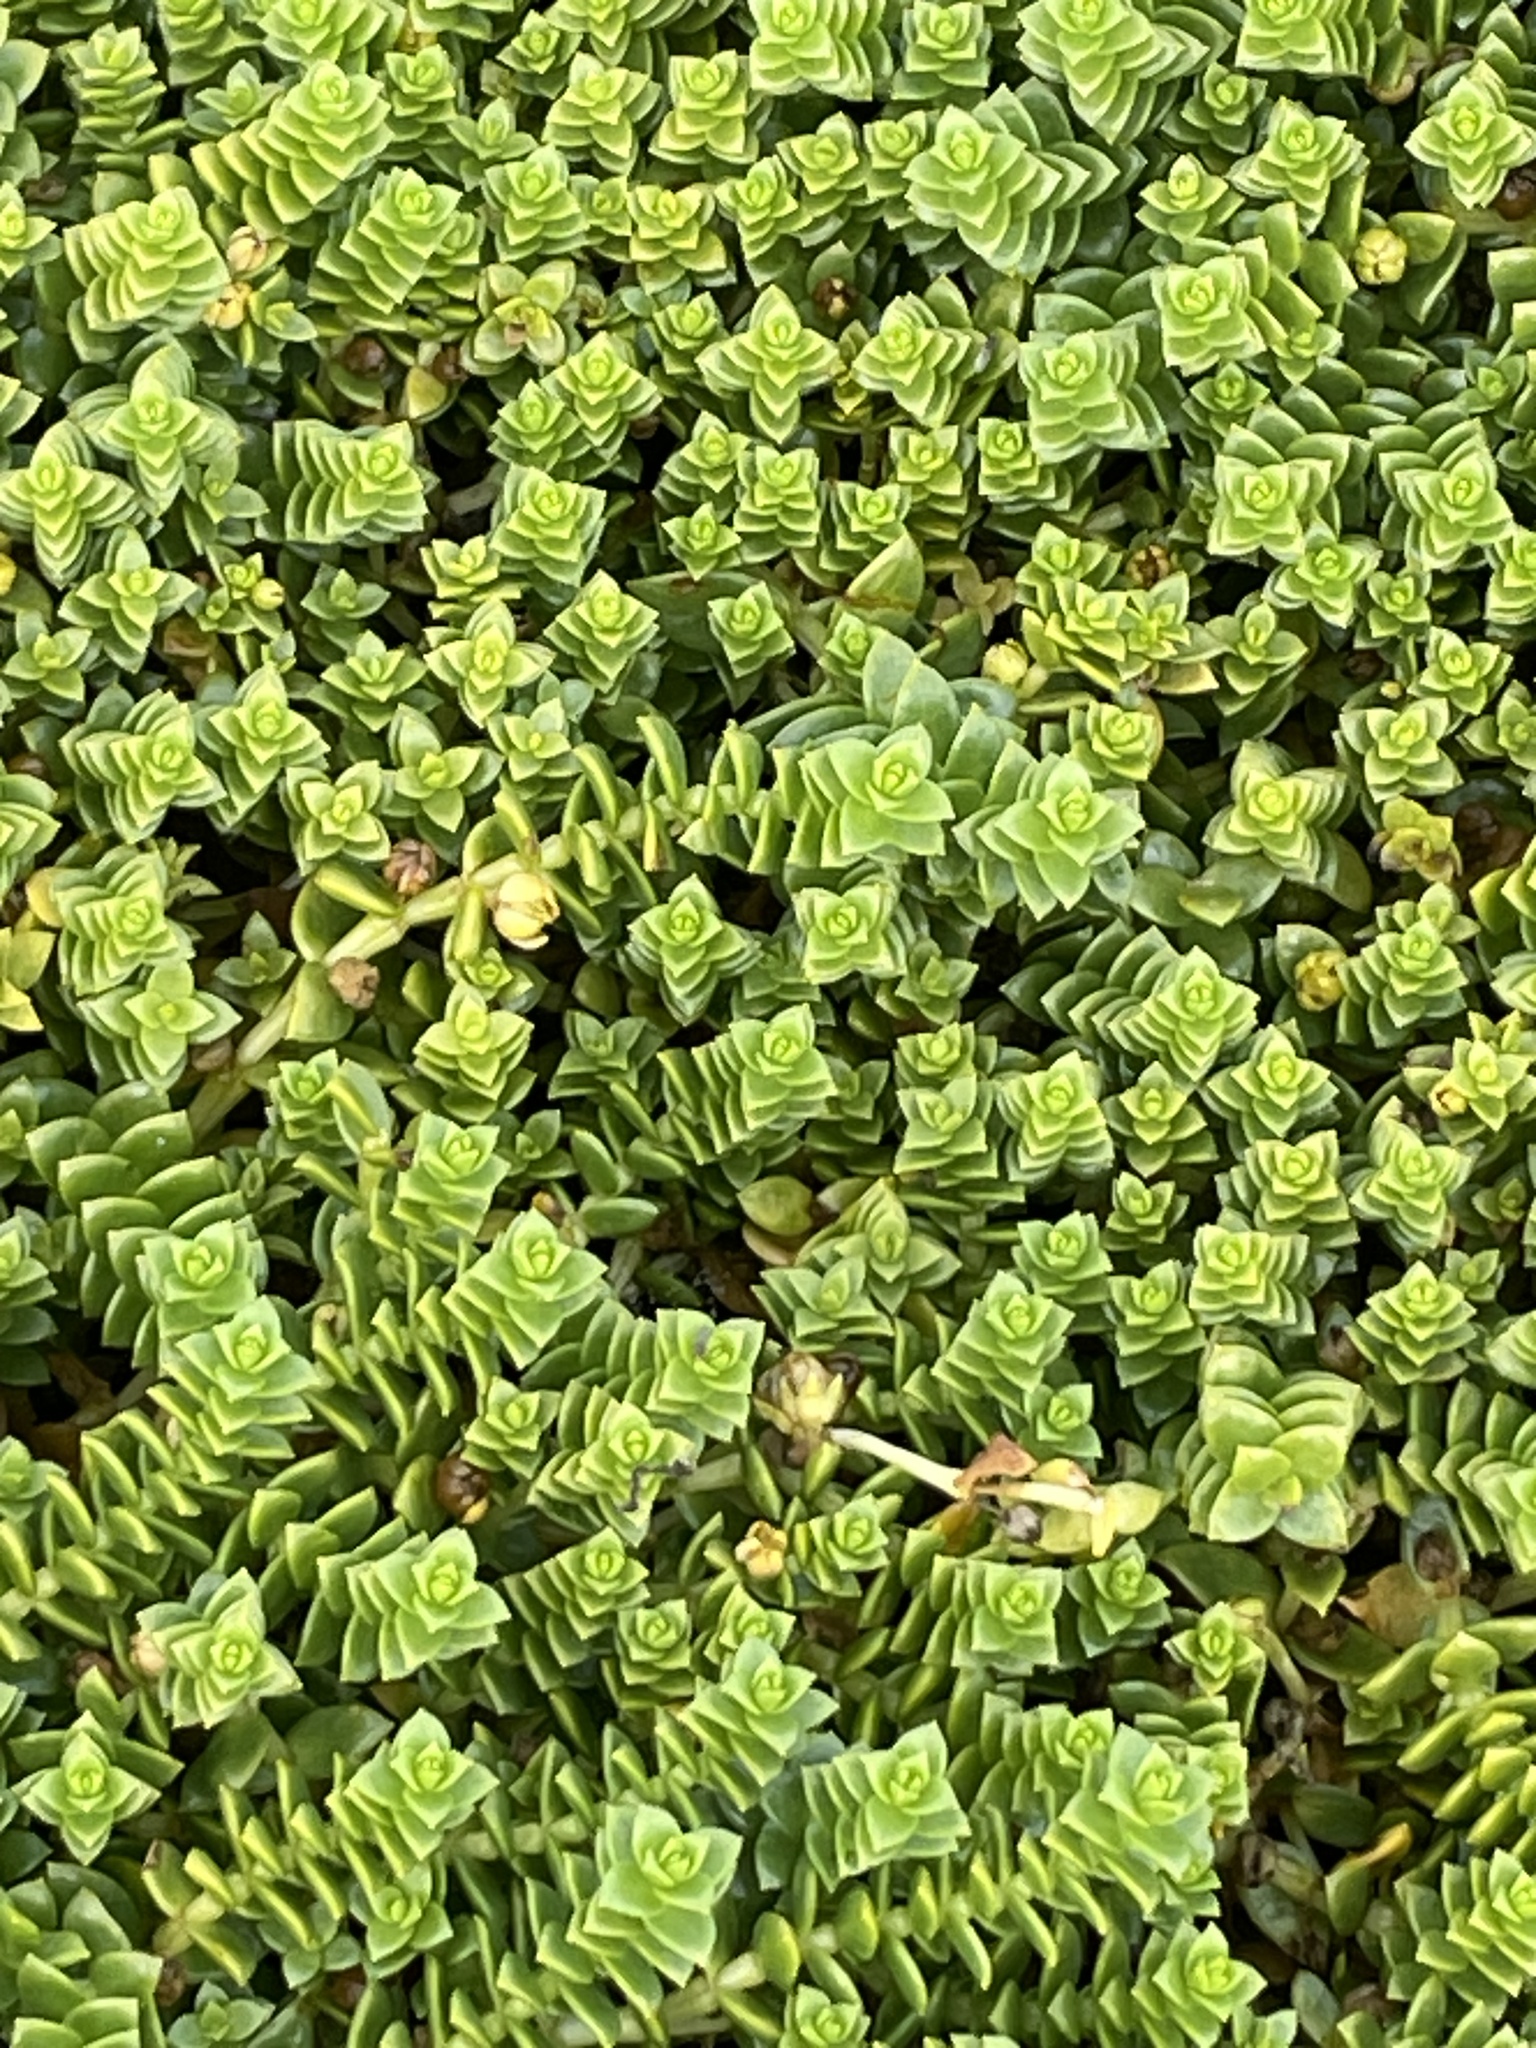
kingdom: Plantae
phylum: Tracheophyta
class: Magnoliopsida
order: Caryophyllales
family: Caryophyllaceae
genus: Honckenya
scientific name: Honckenya peploides
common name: Sea sandwort
